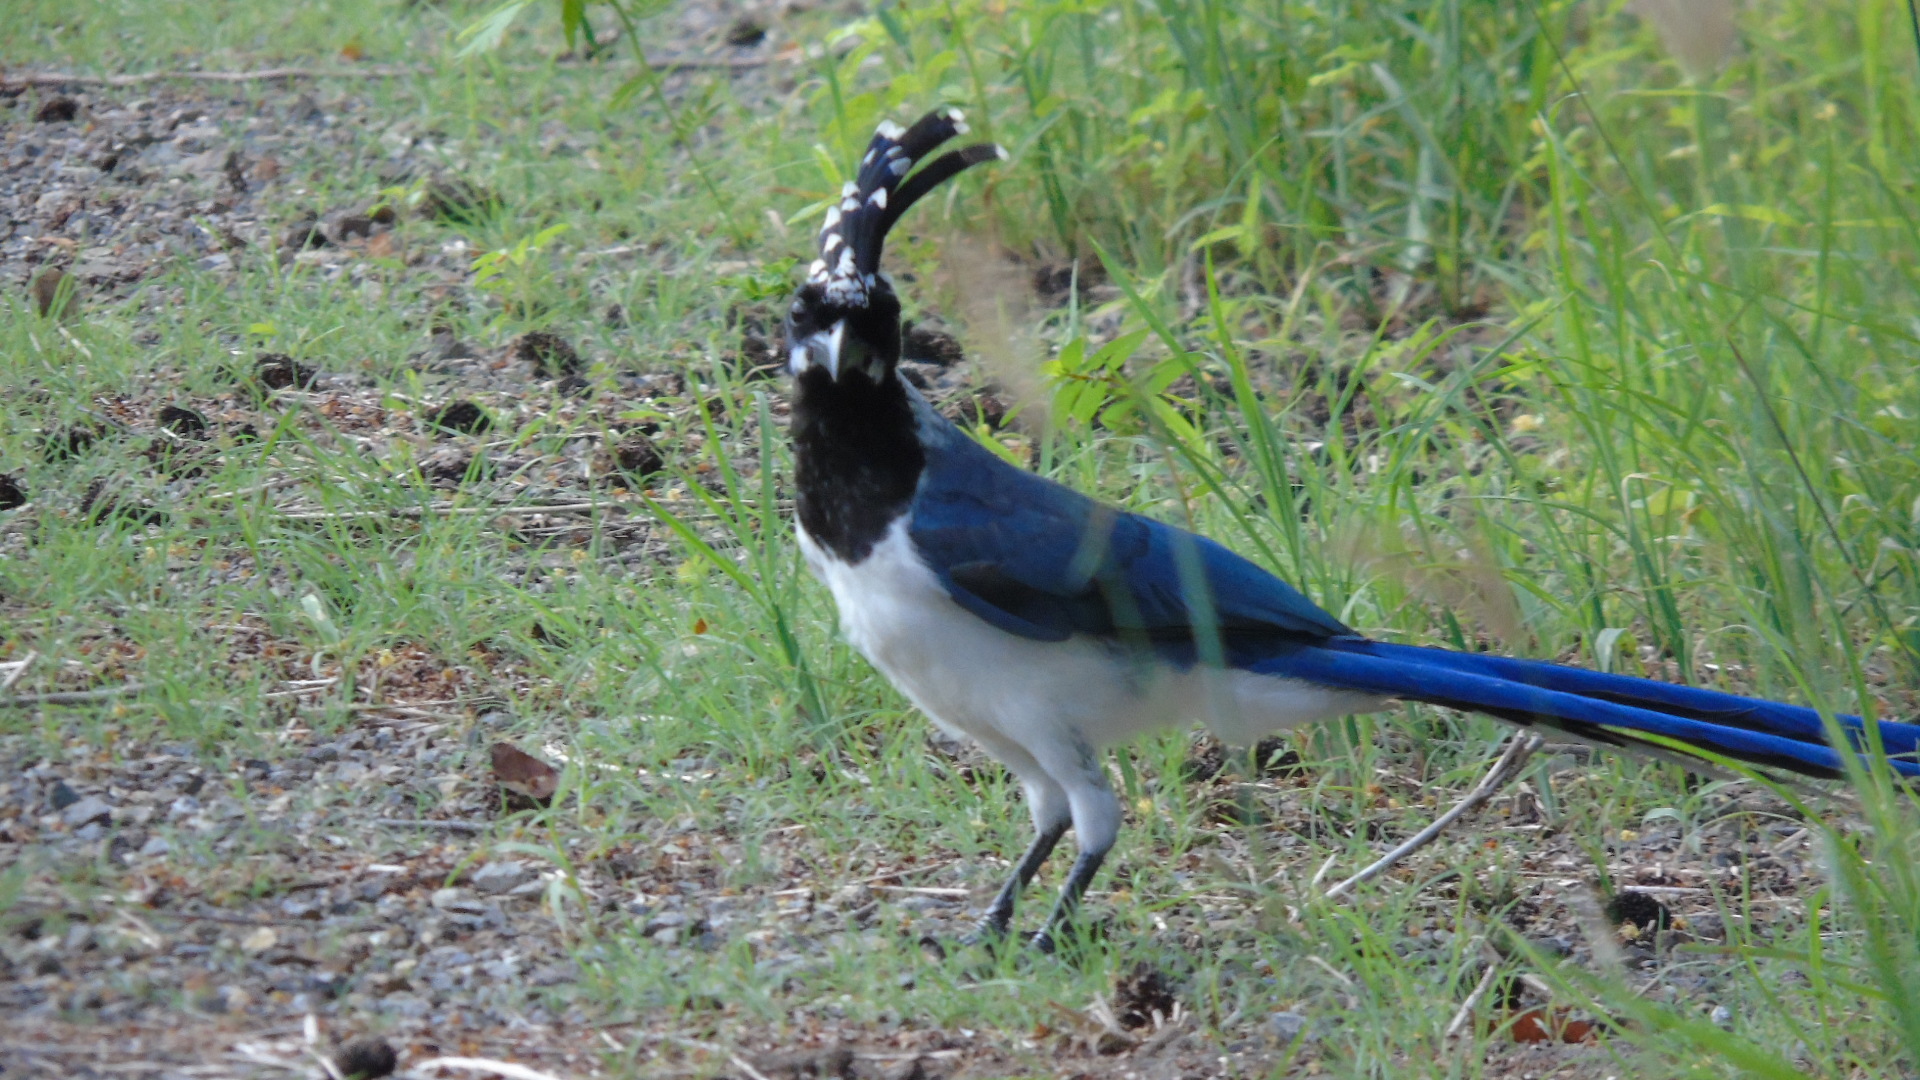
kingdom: Animalia
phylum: Chordata
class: Aves
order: Passeriformes
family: Corvidae
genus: Calocitta
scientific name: Calocitta colliei
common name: Black-throated magpie-jay
